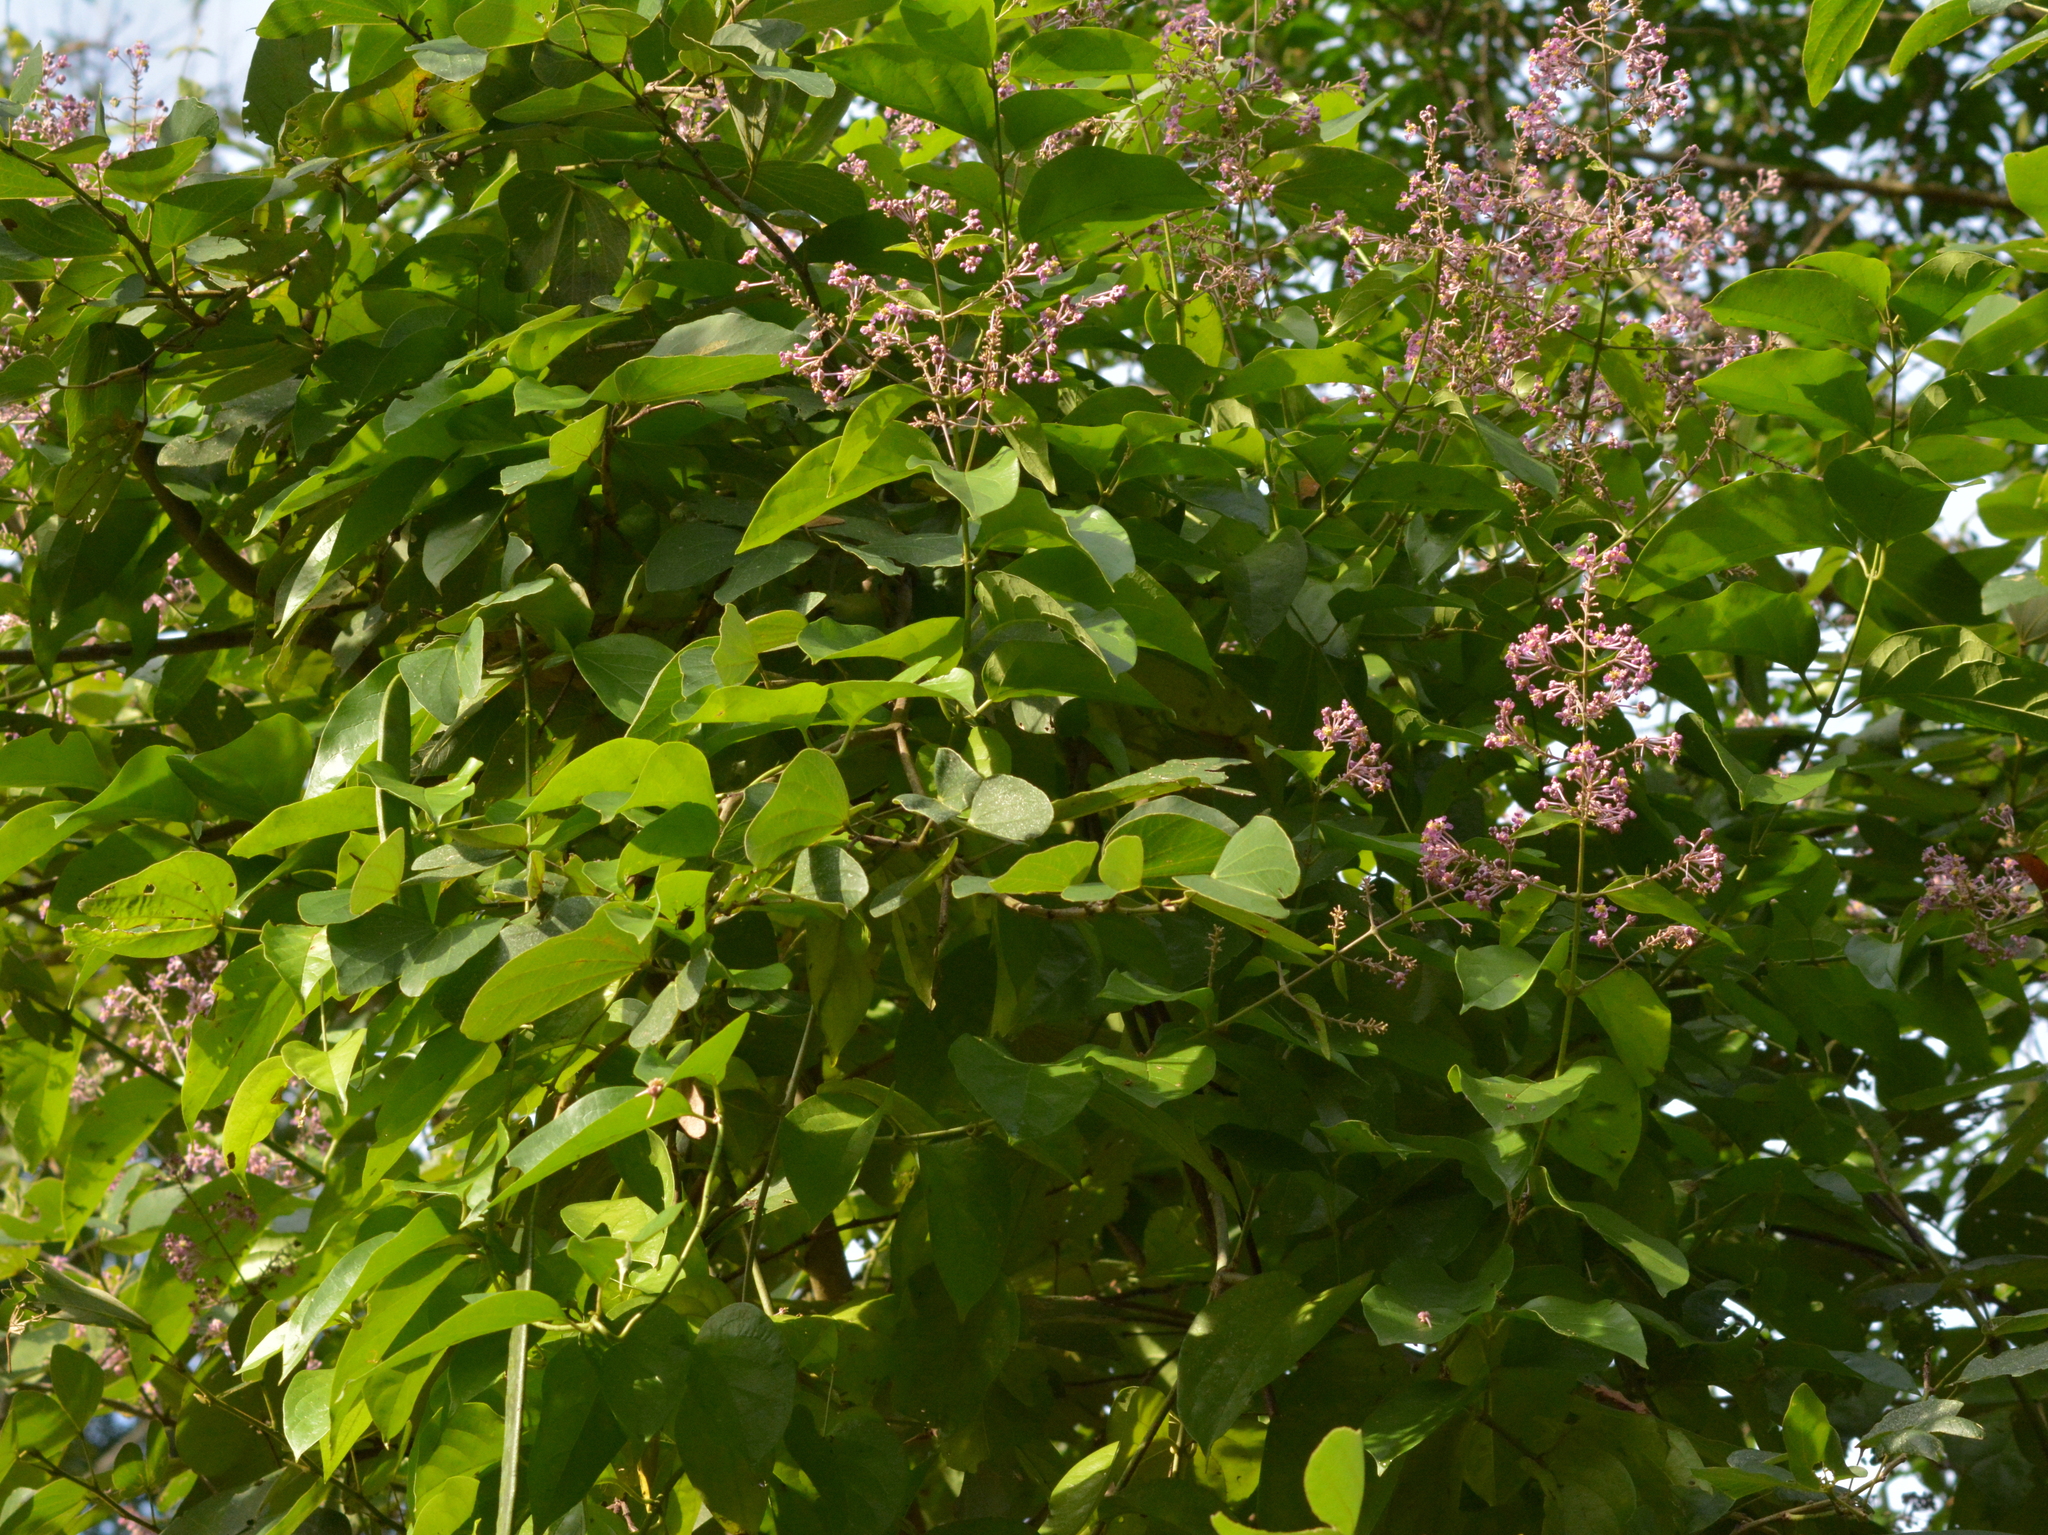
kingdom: Plantae
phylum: Tracheophyta
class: Magnoliopsida
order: Malpighiales
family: Malpighiaceae
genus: Mascagnia
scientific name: Mascagnia divaricata
